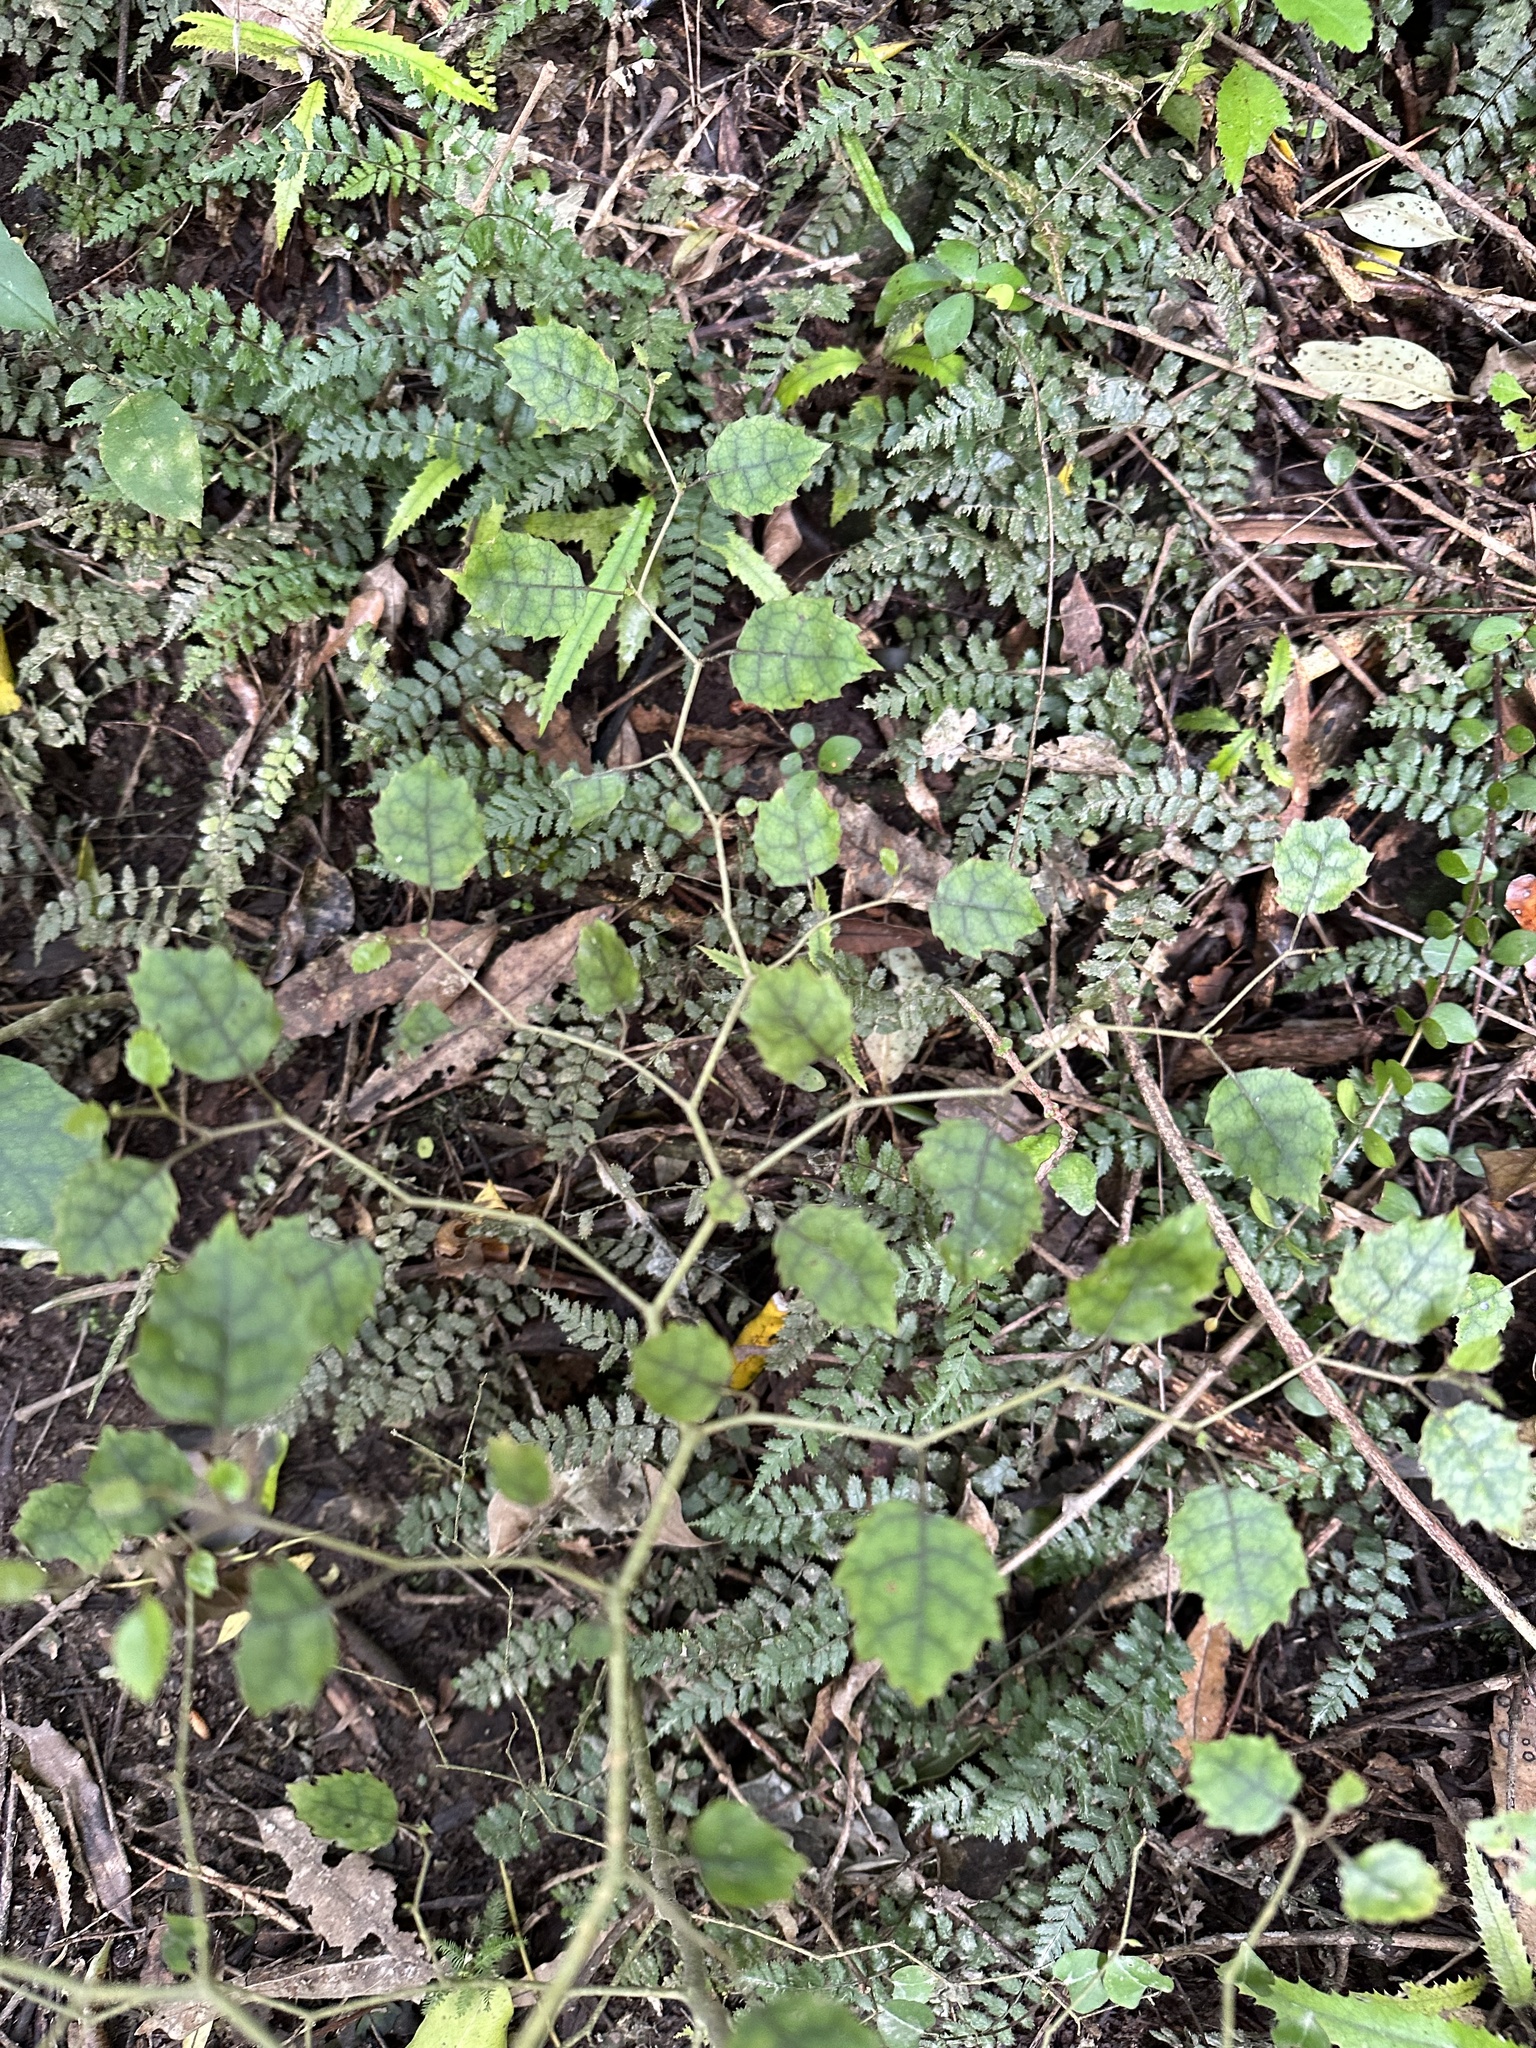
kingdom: Plantae
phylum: Tracheophyta
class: Magnoliopsida
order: Asterales
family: Rousseaceae
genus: Carpodetus
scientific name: Carpodetus serratus
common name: White mapau
